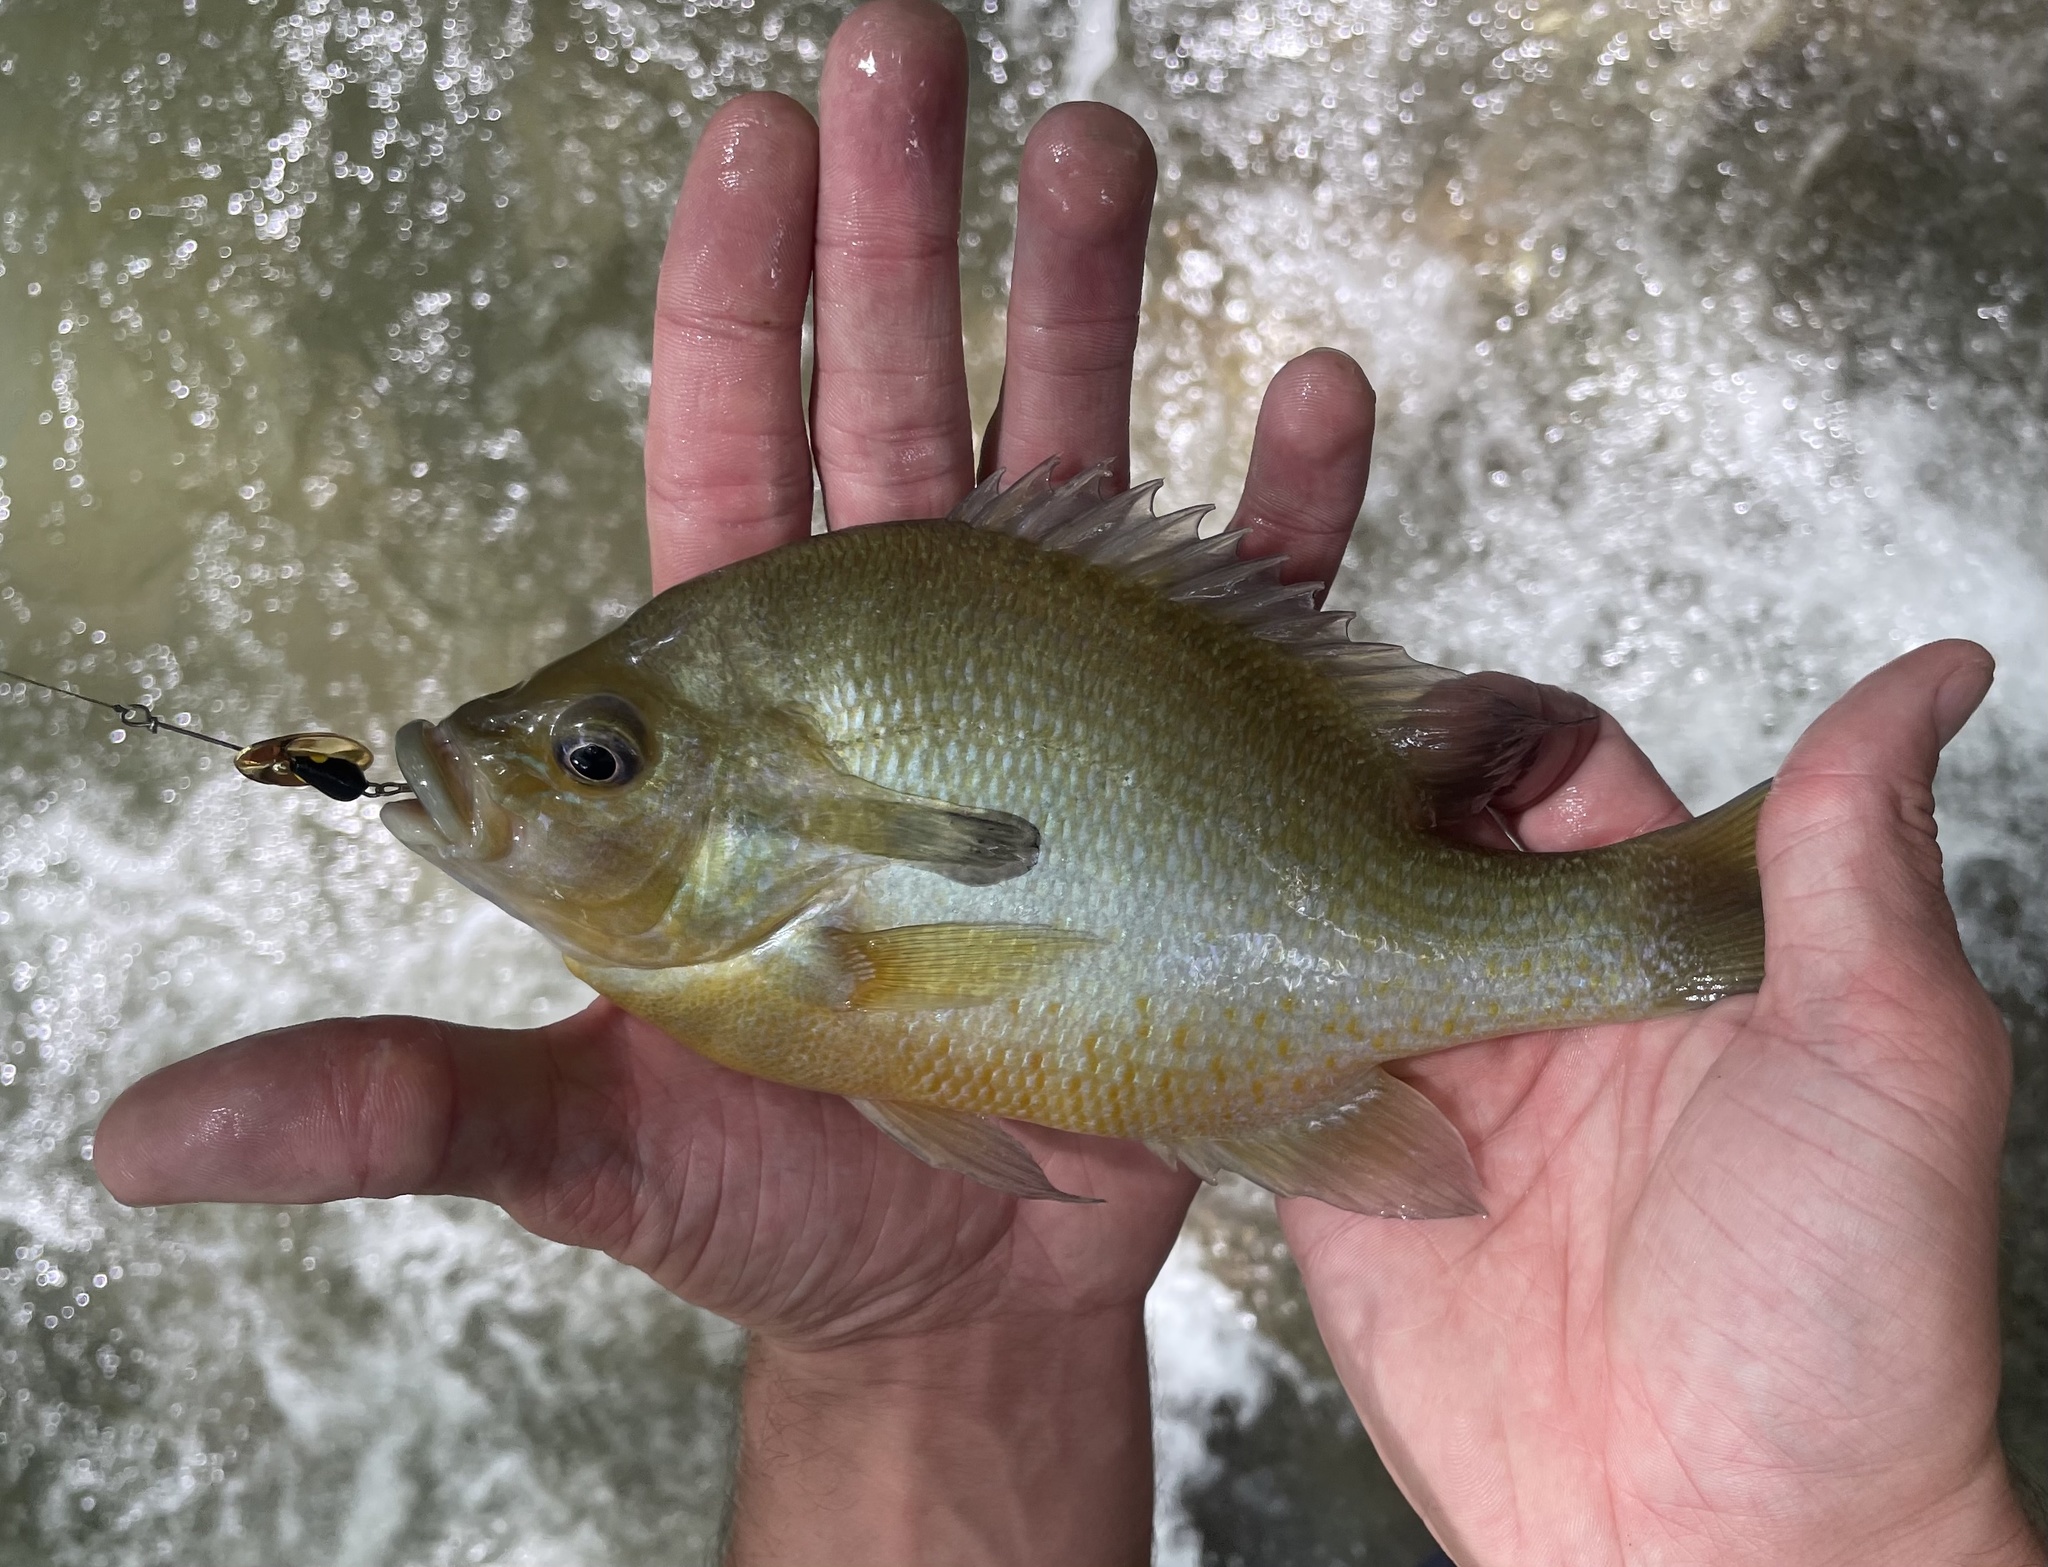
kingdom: Animalia
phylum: Chordata
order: Perciformes
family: Centrarchidae
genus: Lepomis
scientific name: Lepomis auritus
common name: Redbreast sunfish
